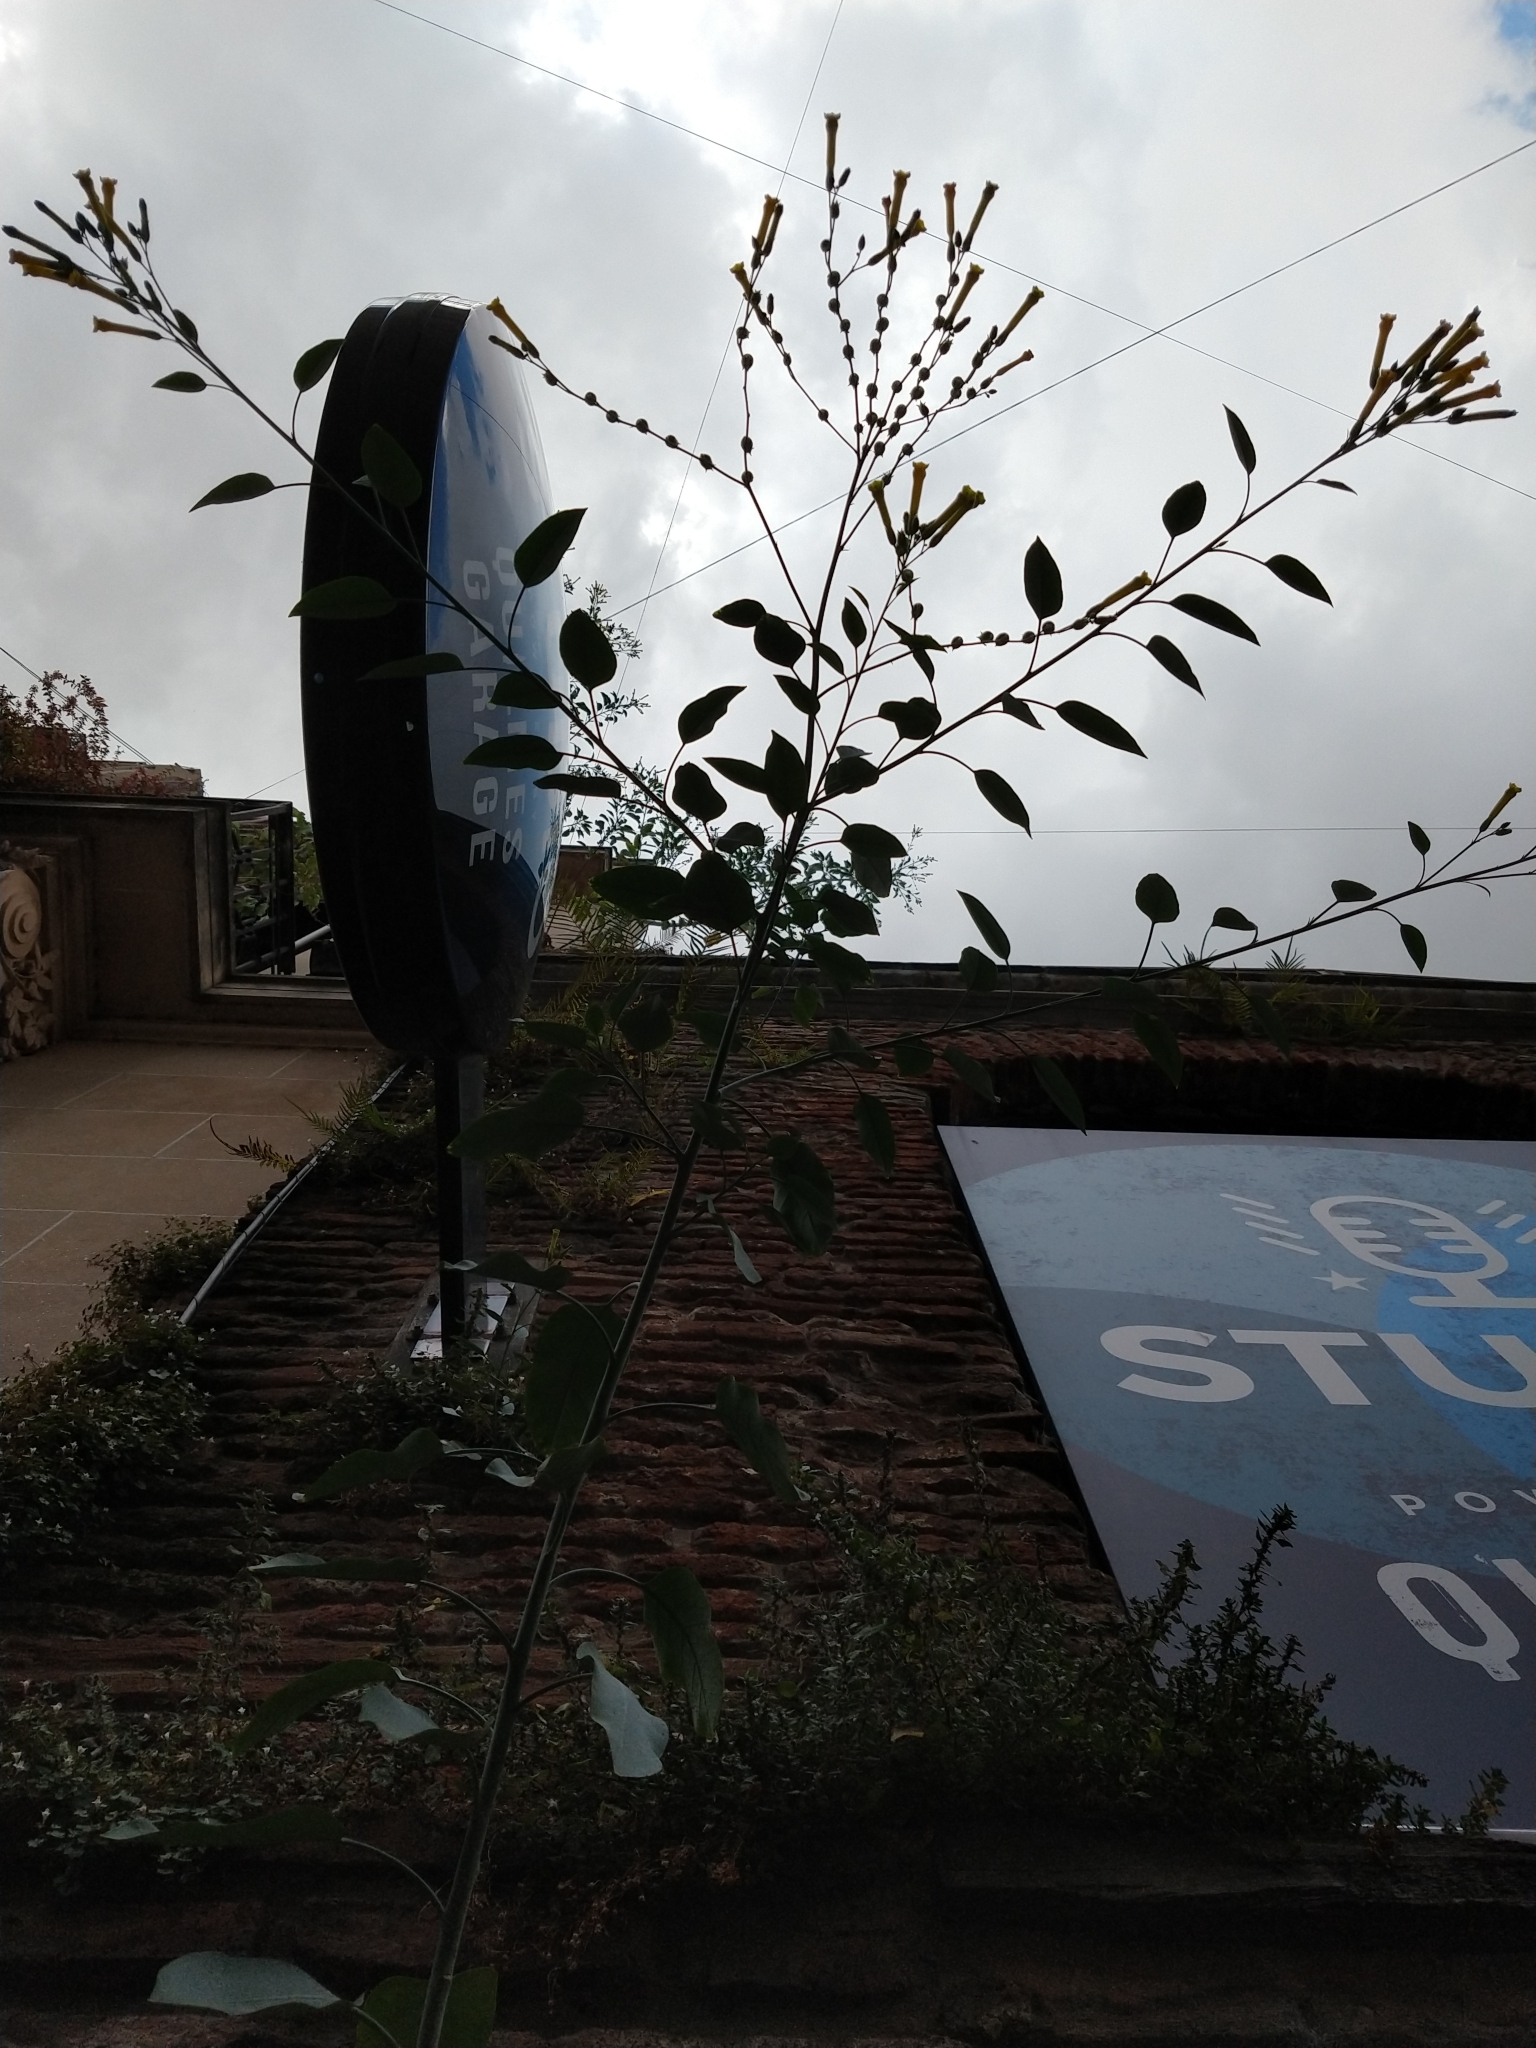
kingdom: Plantae
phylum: Tracheophyta
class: Magnoliopsida
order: Solanales
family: Solanaceae
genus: Nicotiana
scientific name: Nicotiana glauca
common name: Tree tobacco
